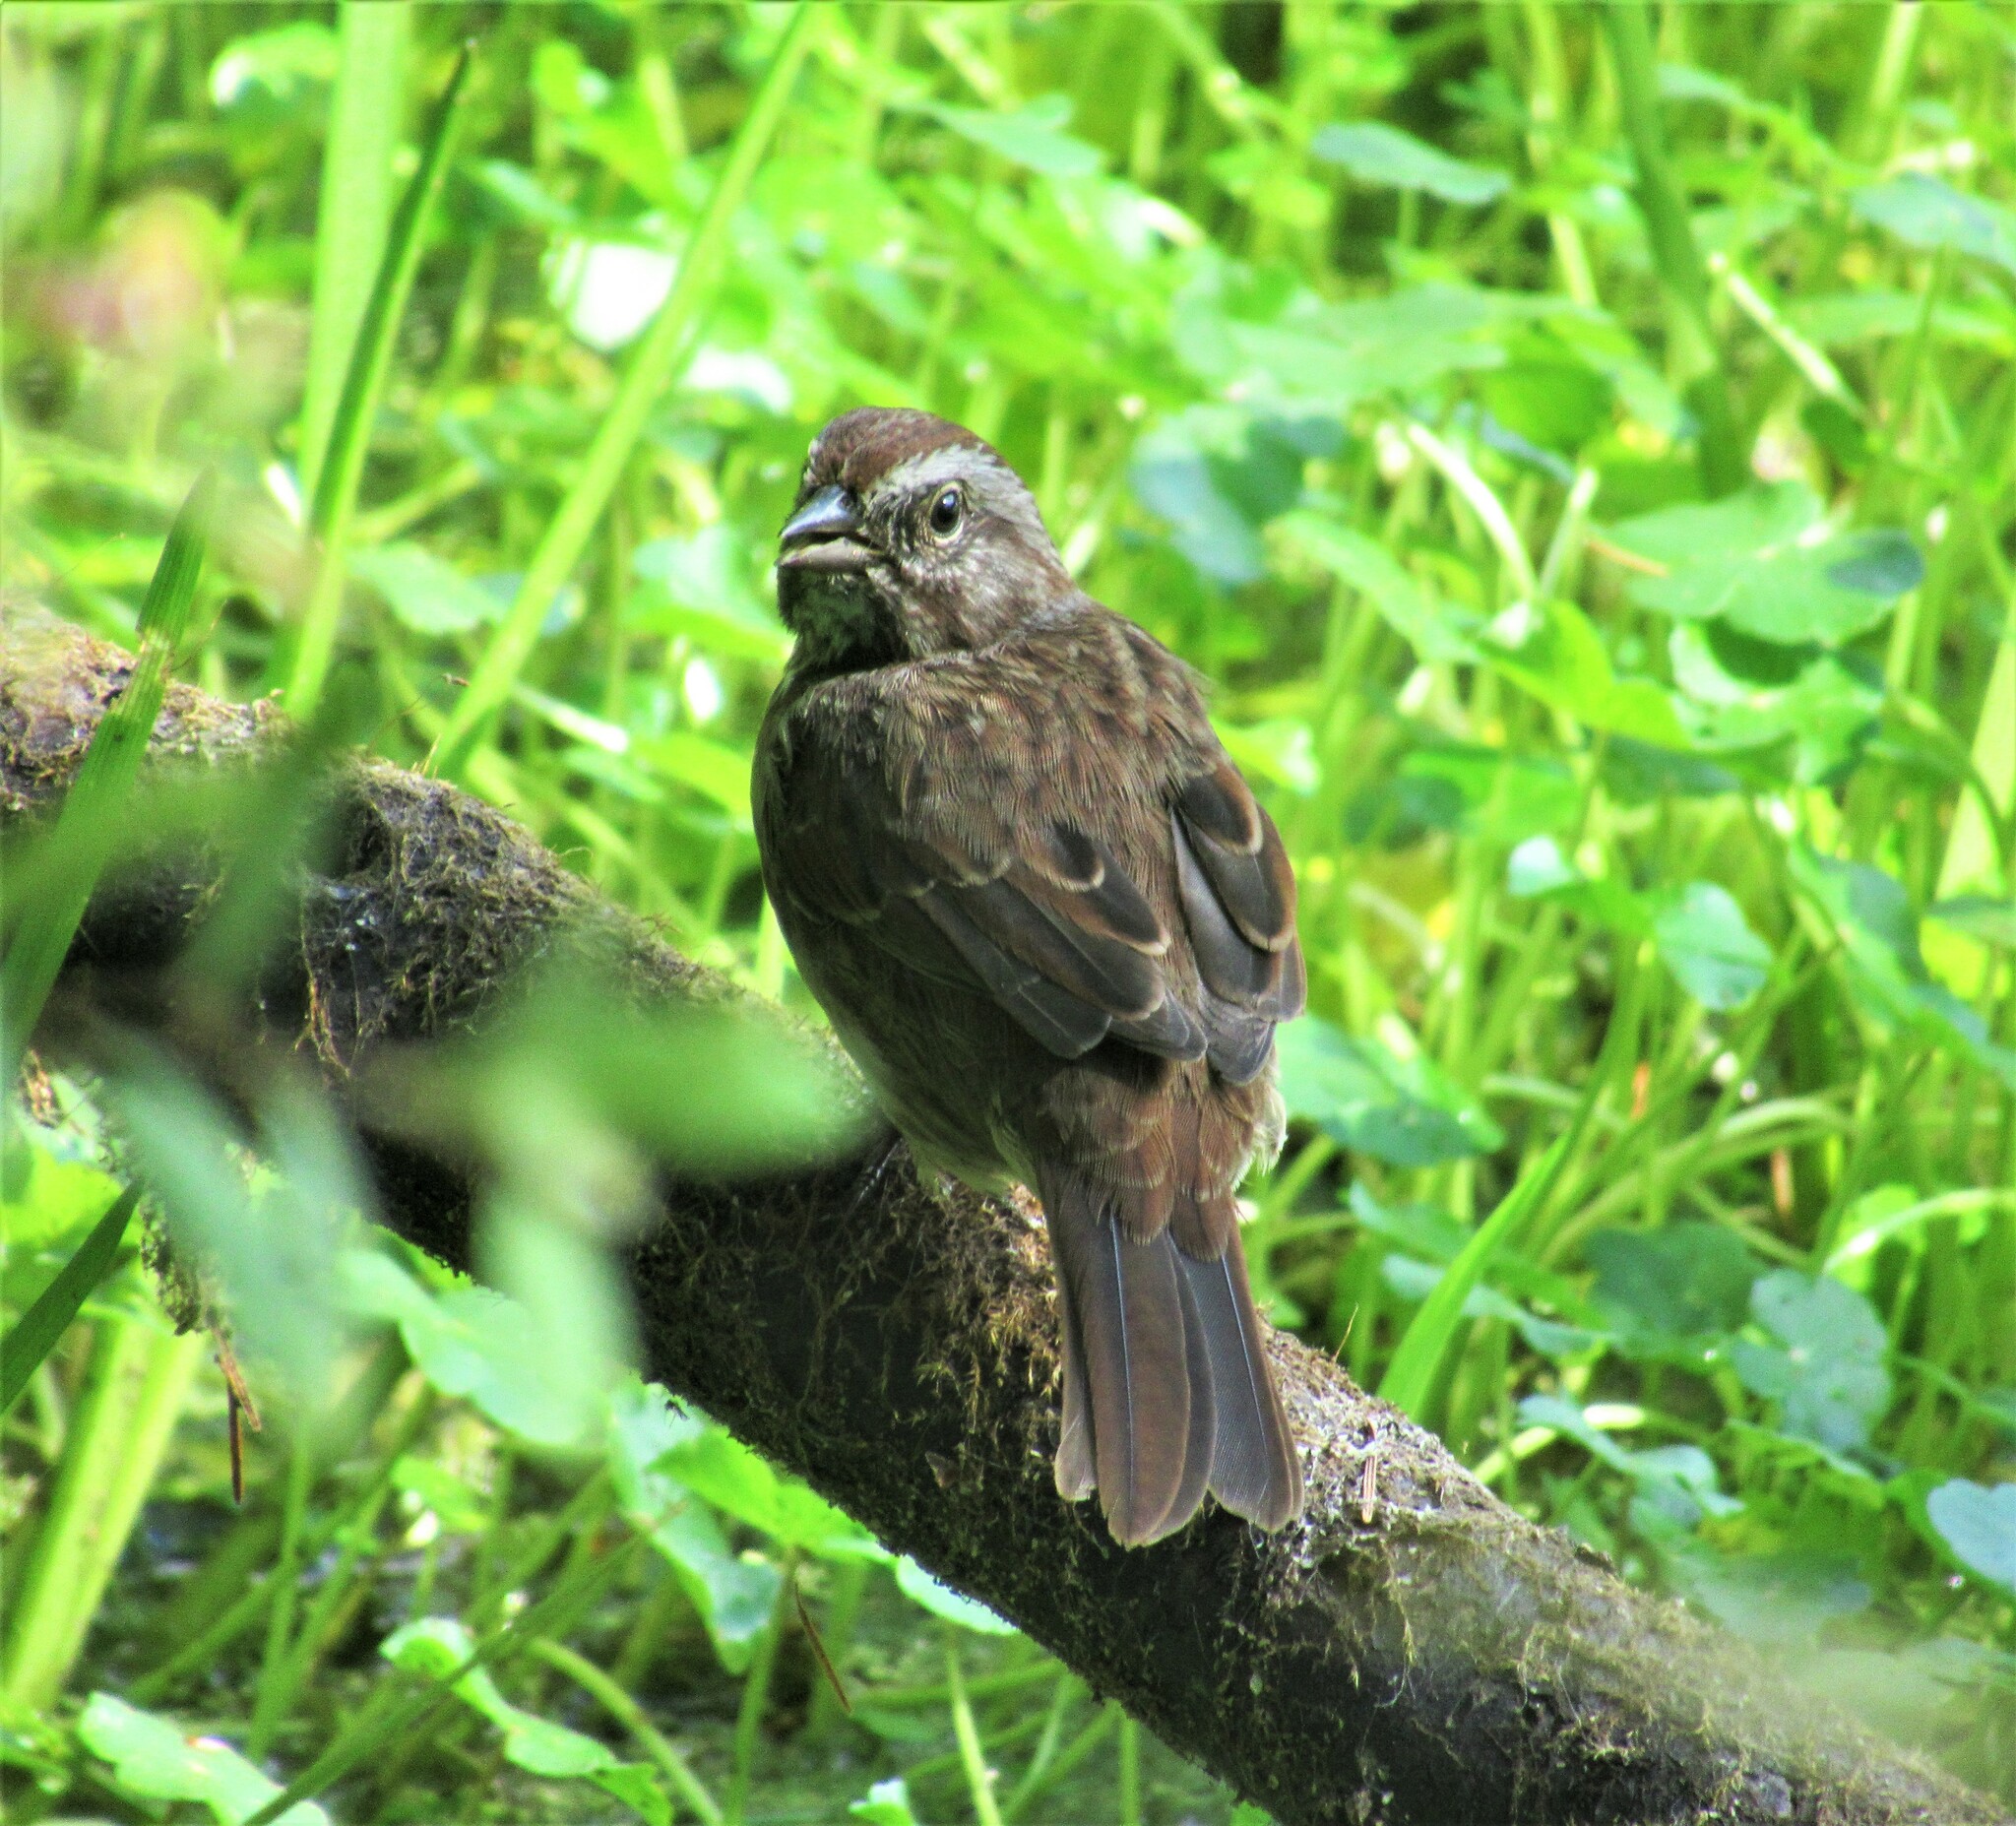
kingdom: Animalia
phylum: Chordata
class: Aves
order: Passeriformes
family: Passerellidae
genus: Melospiza
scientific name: Melospiza melodia
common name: Song sparrow
